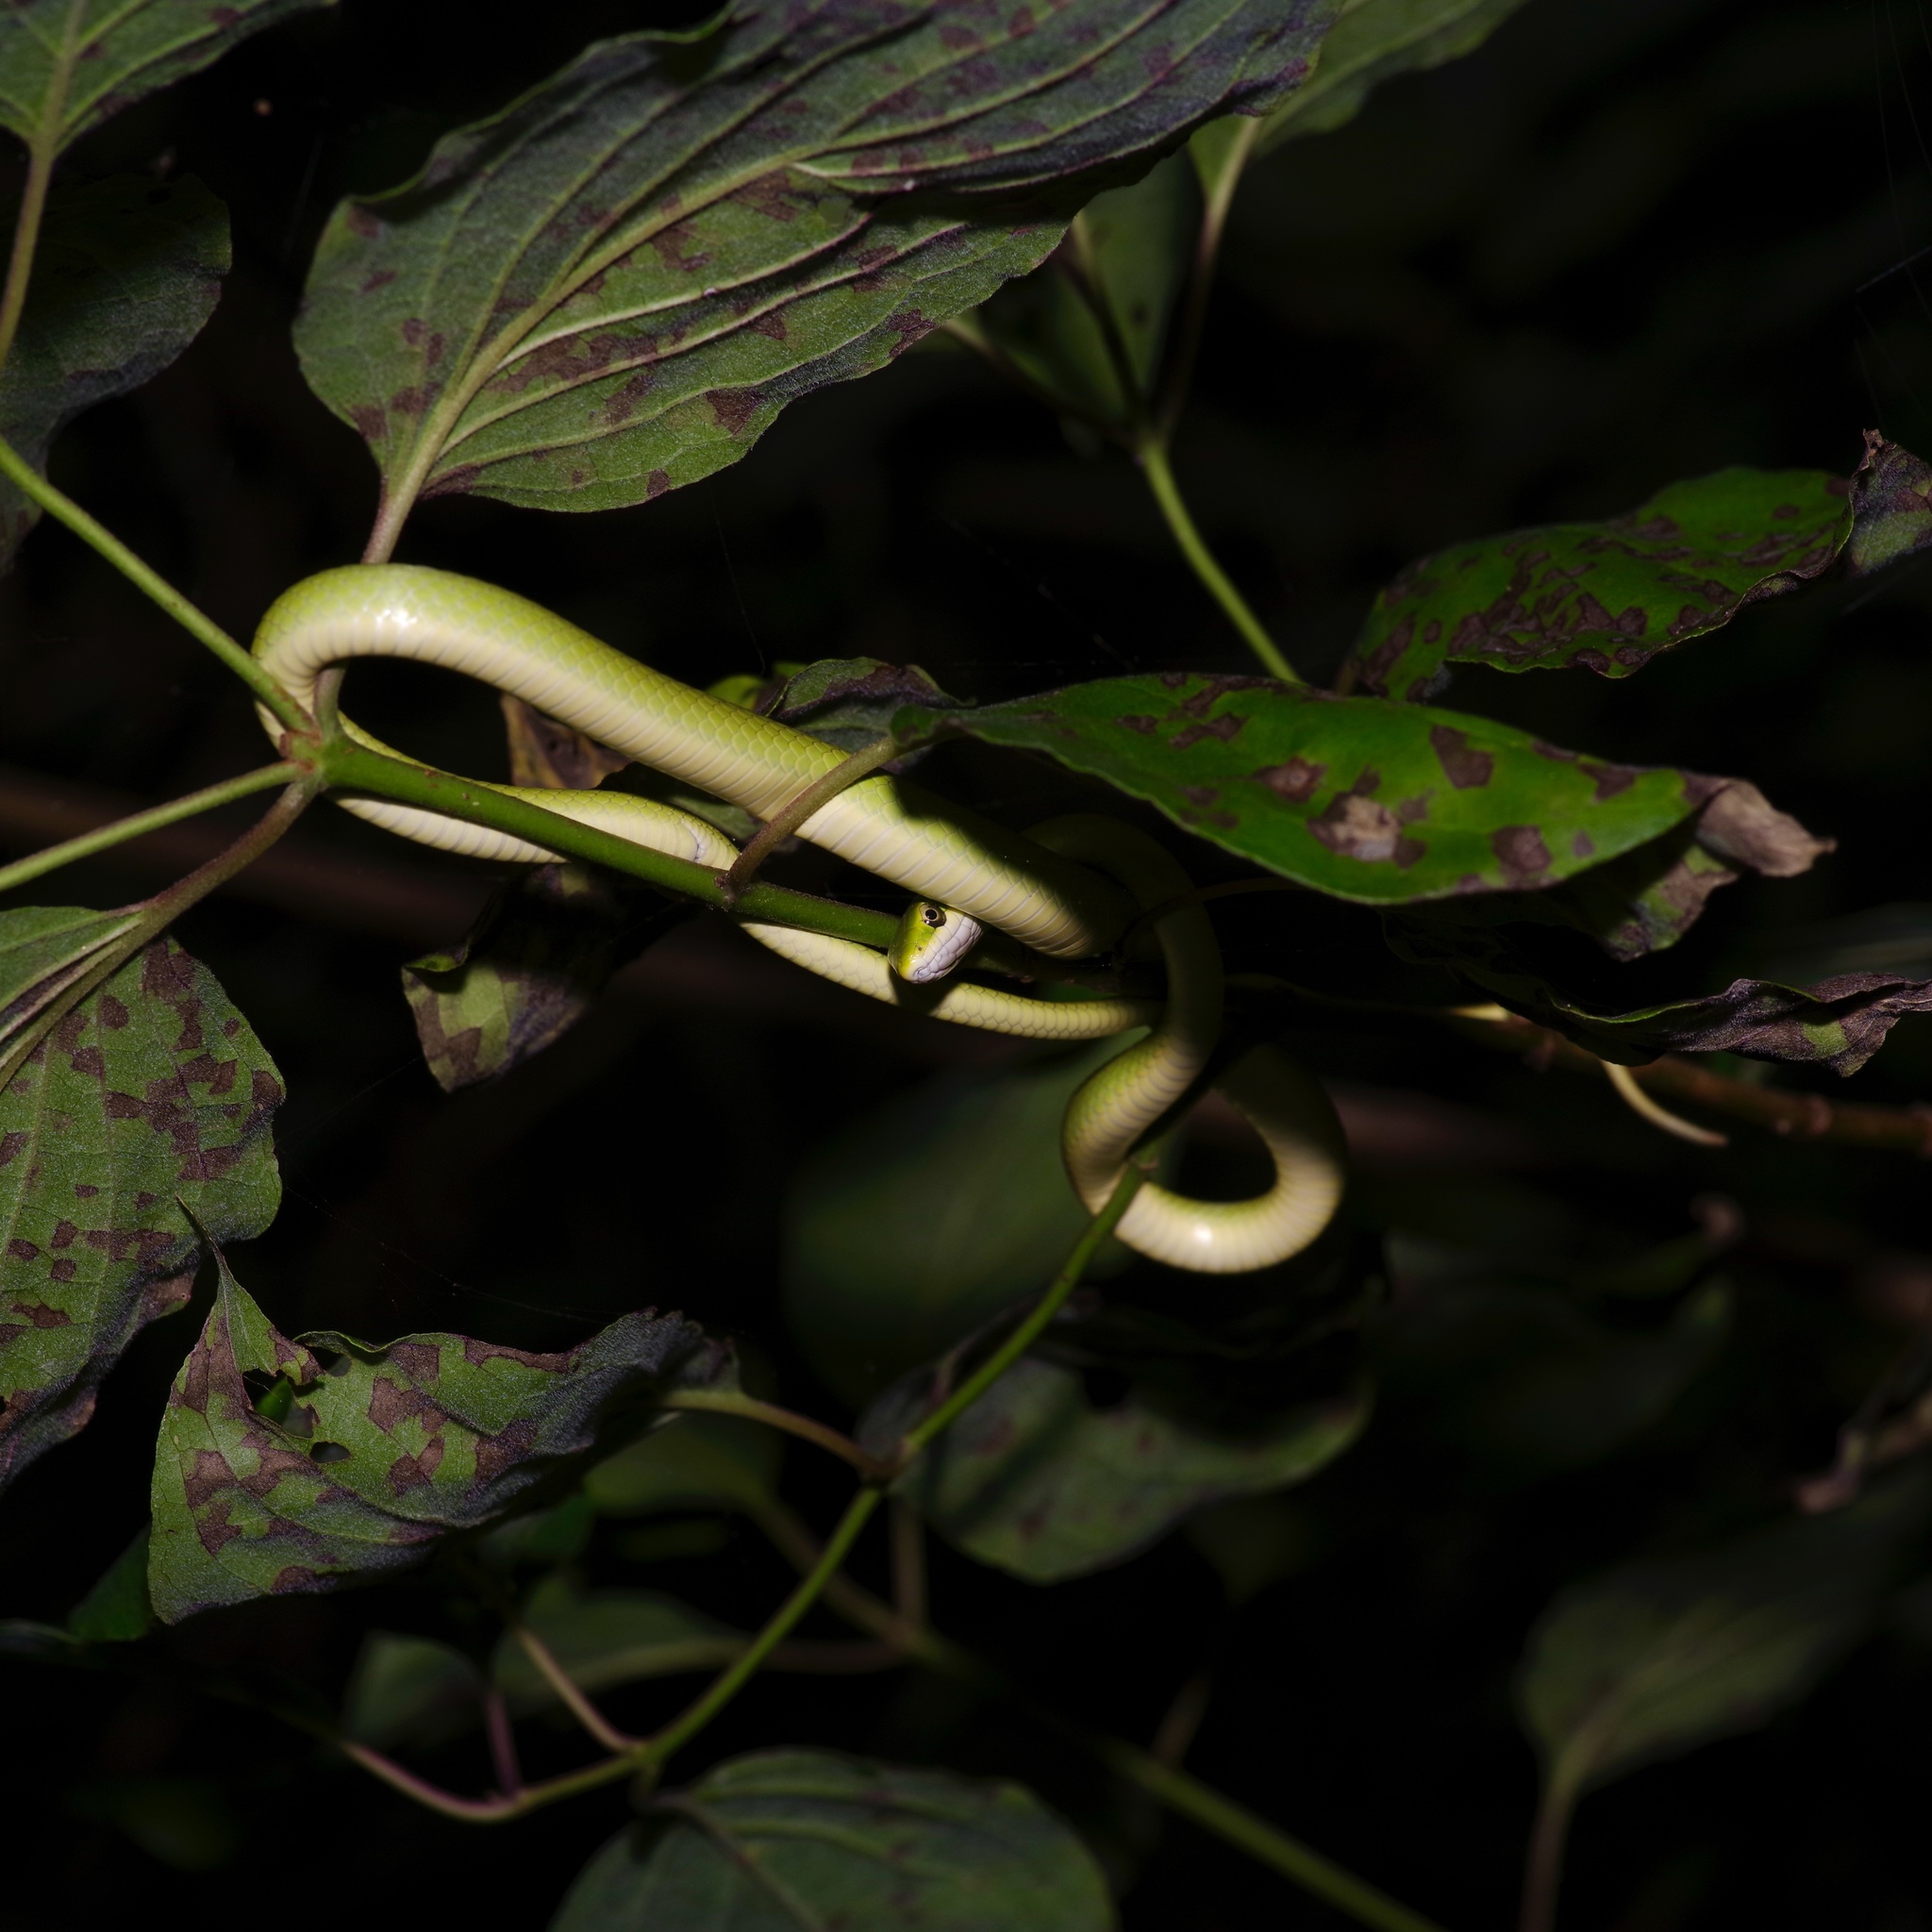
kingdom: Animalia
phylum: Chordata
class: Squamata
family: Colubridae
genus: Opheodrys
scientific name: Opheodrys aestivus
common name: Rough greensnake
